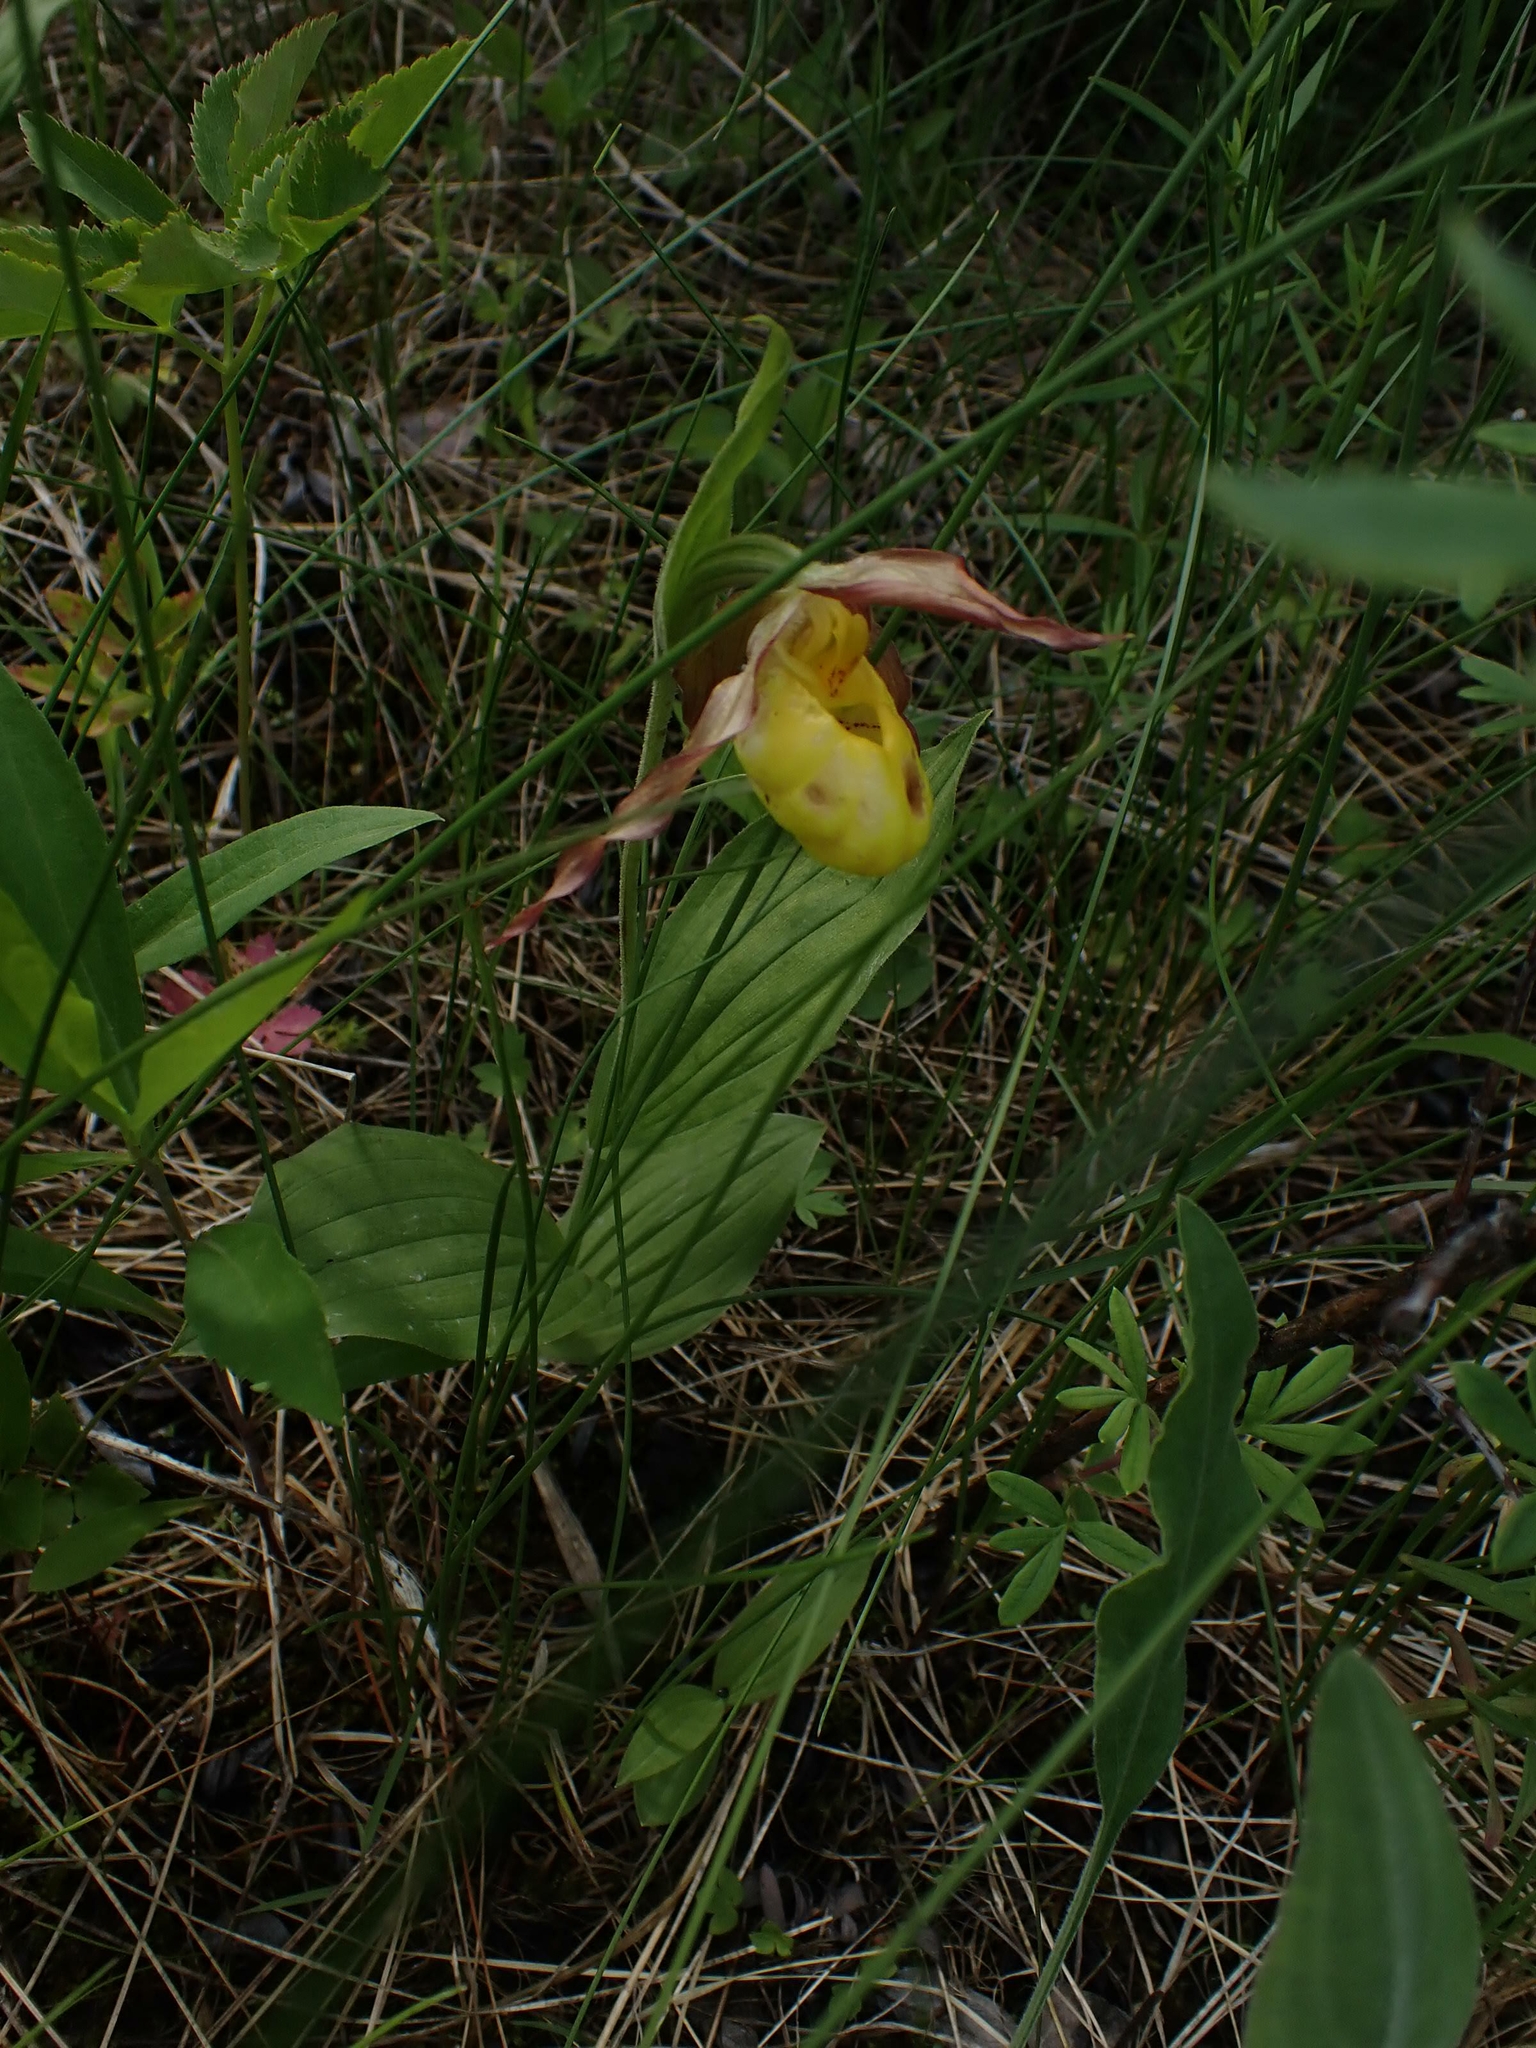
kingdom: Plantae
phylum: Tracheophyta
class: Liliopsida
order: Asparagales
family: Orchidaceae
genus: Cypripedium
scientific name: Cypripedium parviflorum
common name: American yellow lady's-slipper
